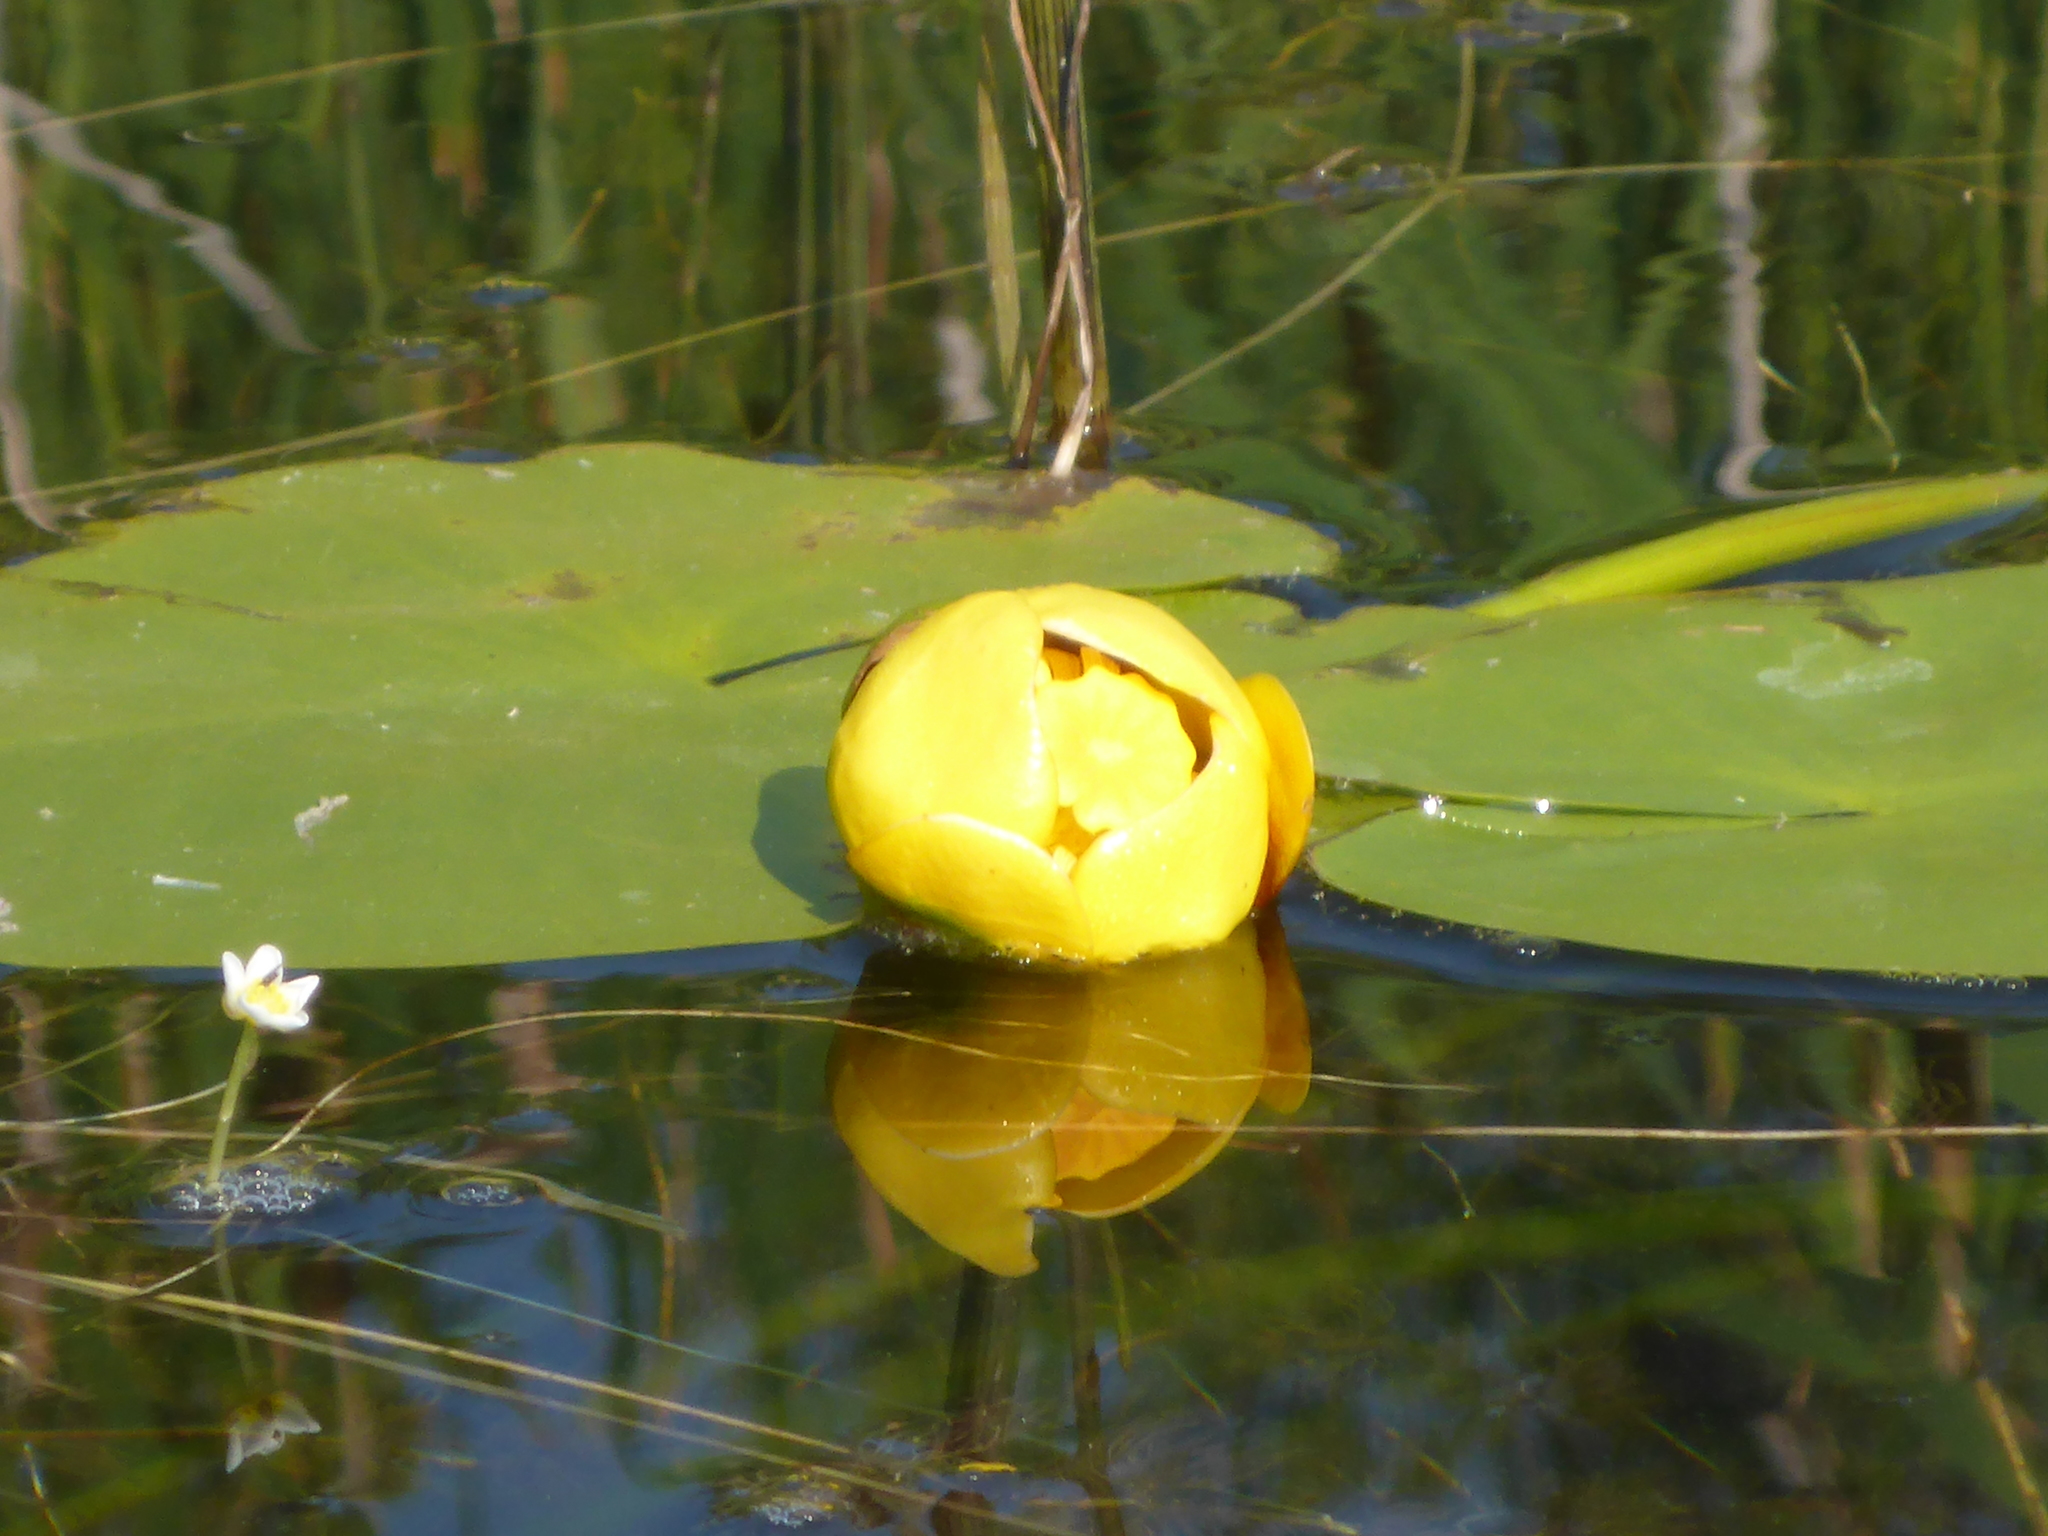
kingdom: Plantae
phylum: Tracheophyta
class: Magnoliopsida
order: Nymphaeales
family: Nymphaeaceae
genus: Nuphar
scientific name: Nuphar variegata
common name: Beaver-root
